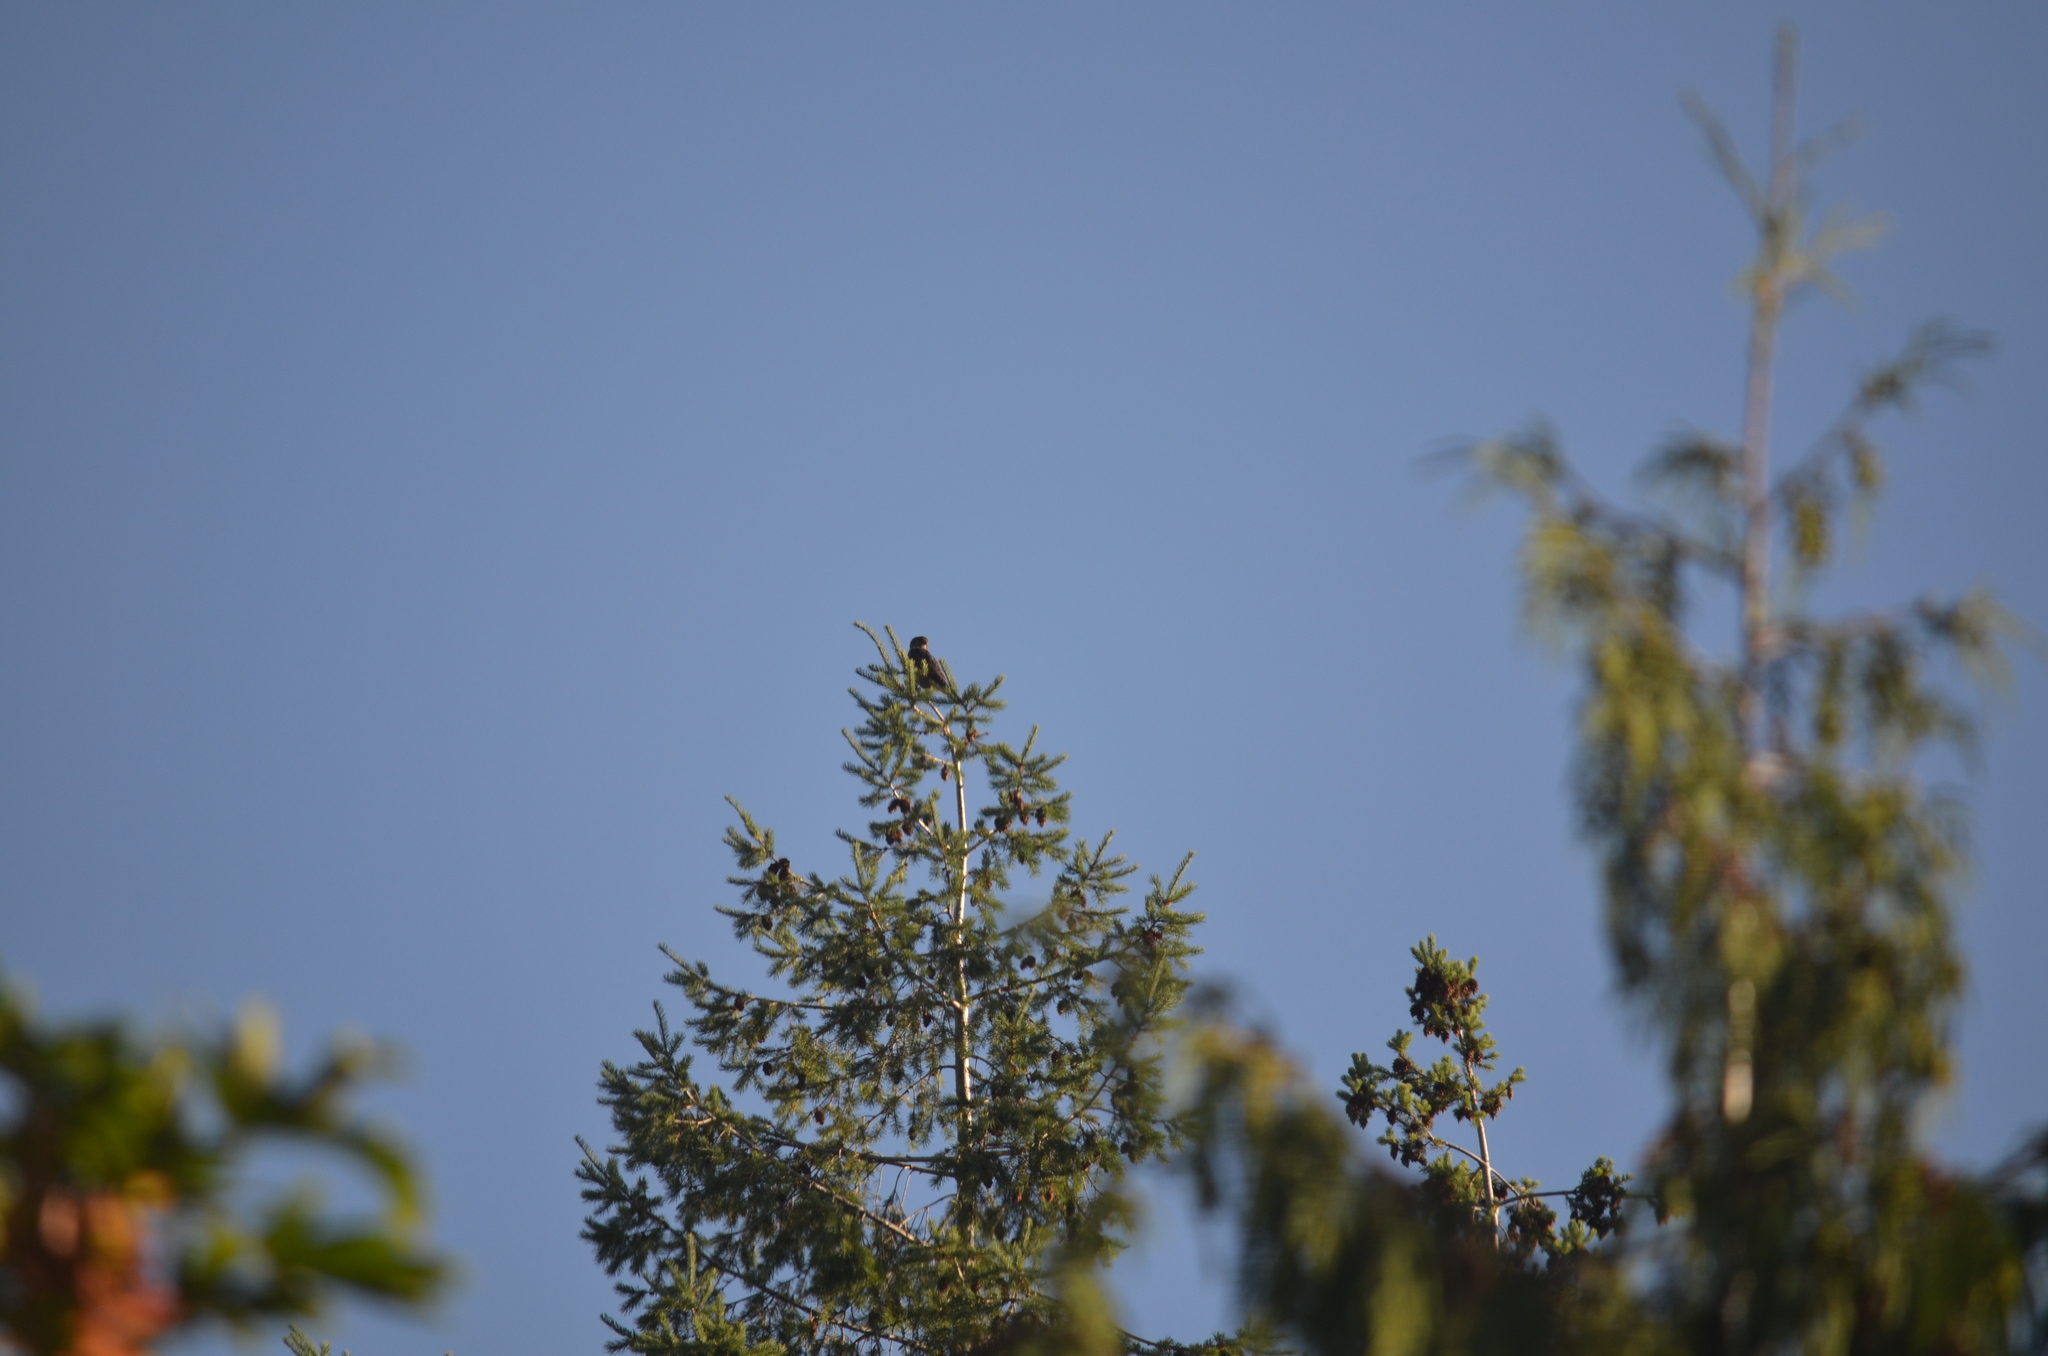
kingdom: Animalia
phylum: Chordata
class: Aves
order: Falconiformes
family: Falconidae
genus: Falco
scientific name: Falco columbarius
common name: Merlin
